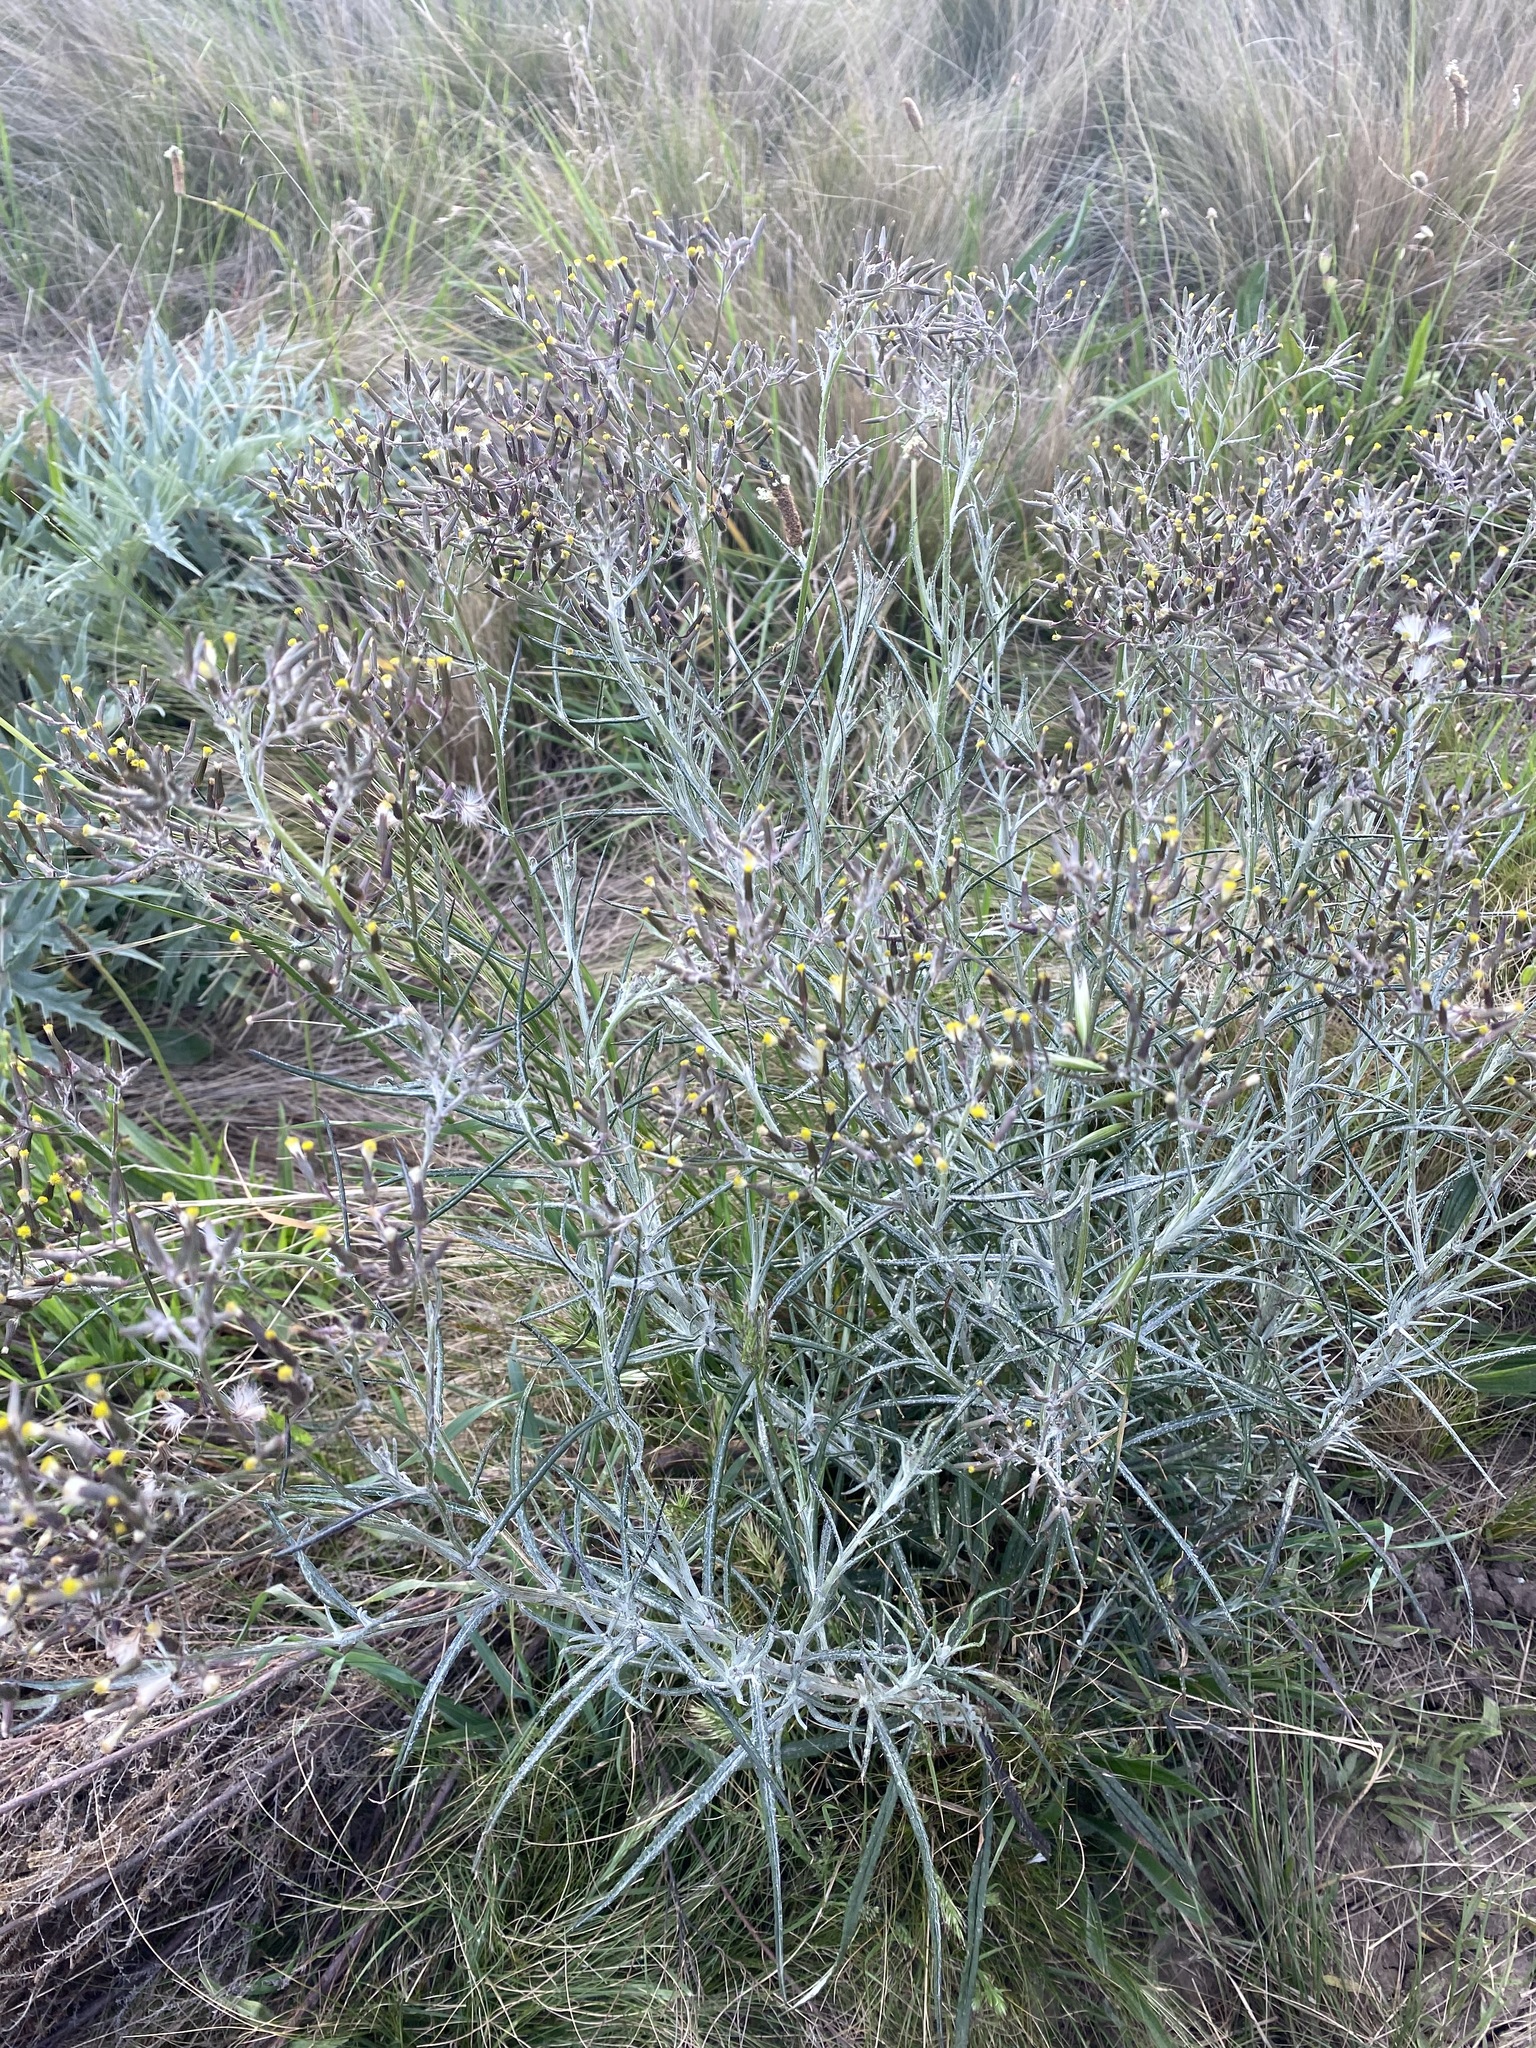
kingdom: Plantae
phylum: Tracheophyta
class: Magnoliopsida
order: Asterales
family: Asteraceae
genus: Senecio
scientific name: Senecio quadridentatus
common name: Cotton fireweed
